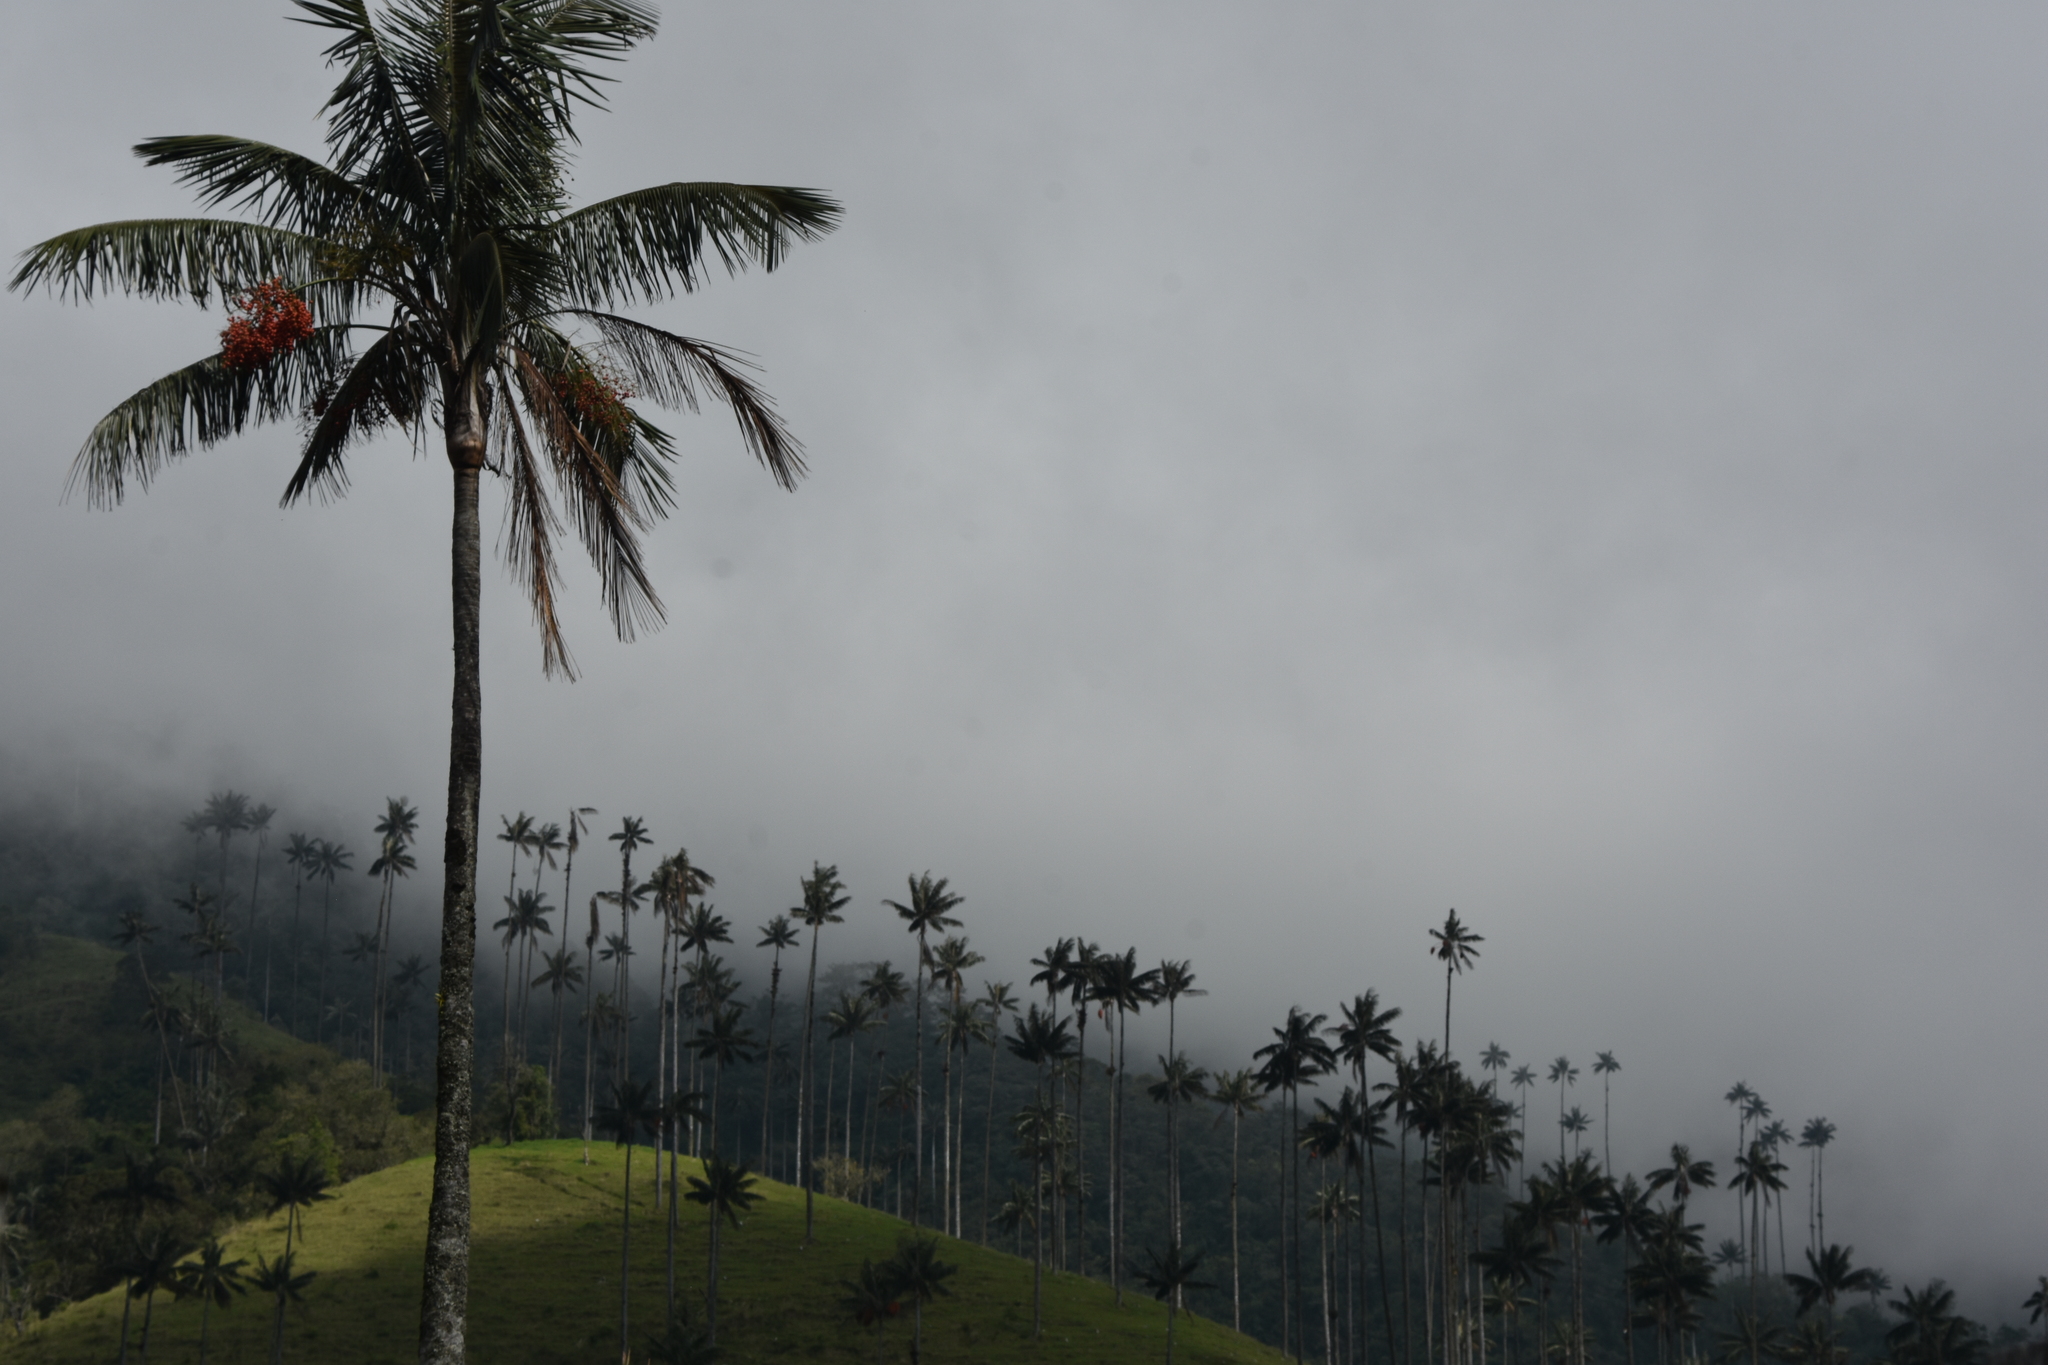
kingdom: Plantae
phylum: Tracheophyta
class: Liliopsida
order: Arecales
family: Arecaceae
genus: Ceroxylon
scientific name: Ceroxylon quindiuense
